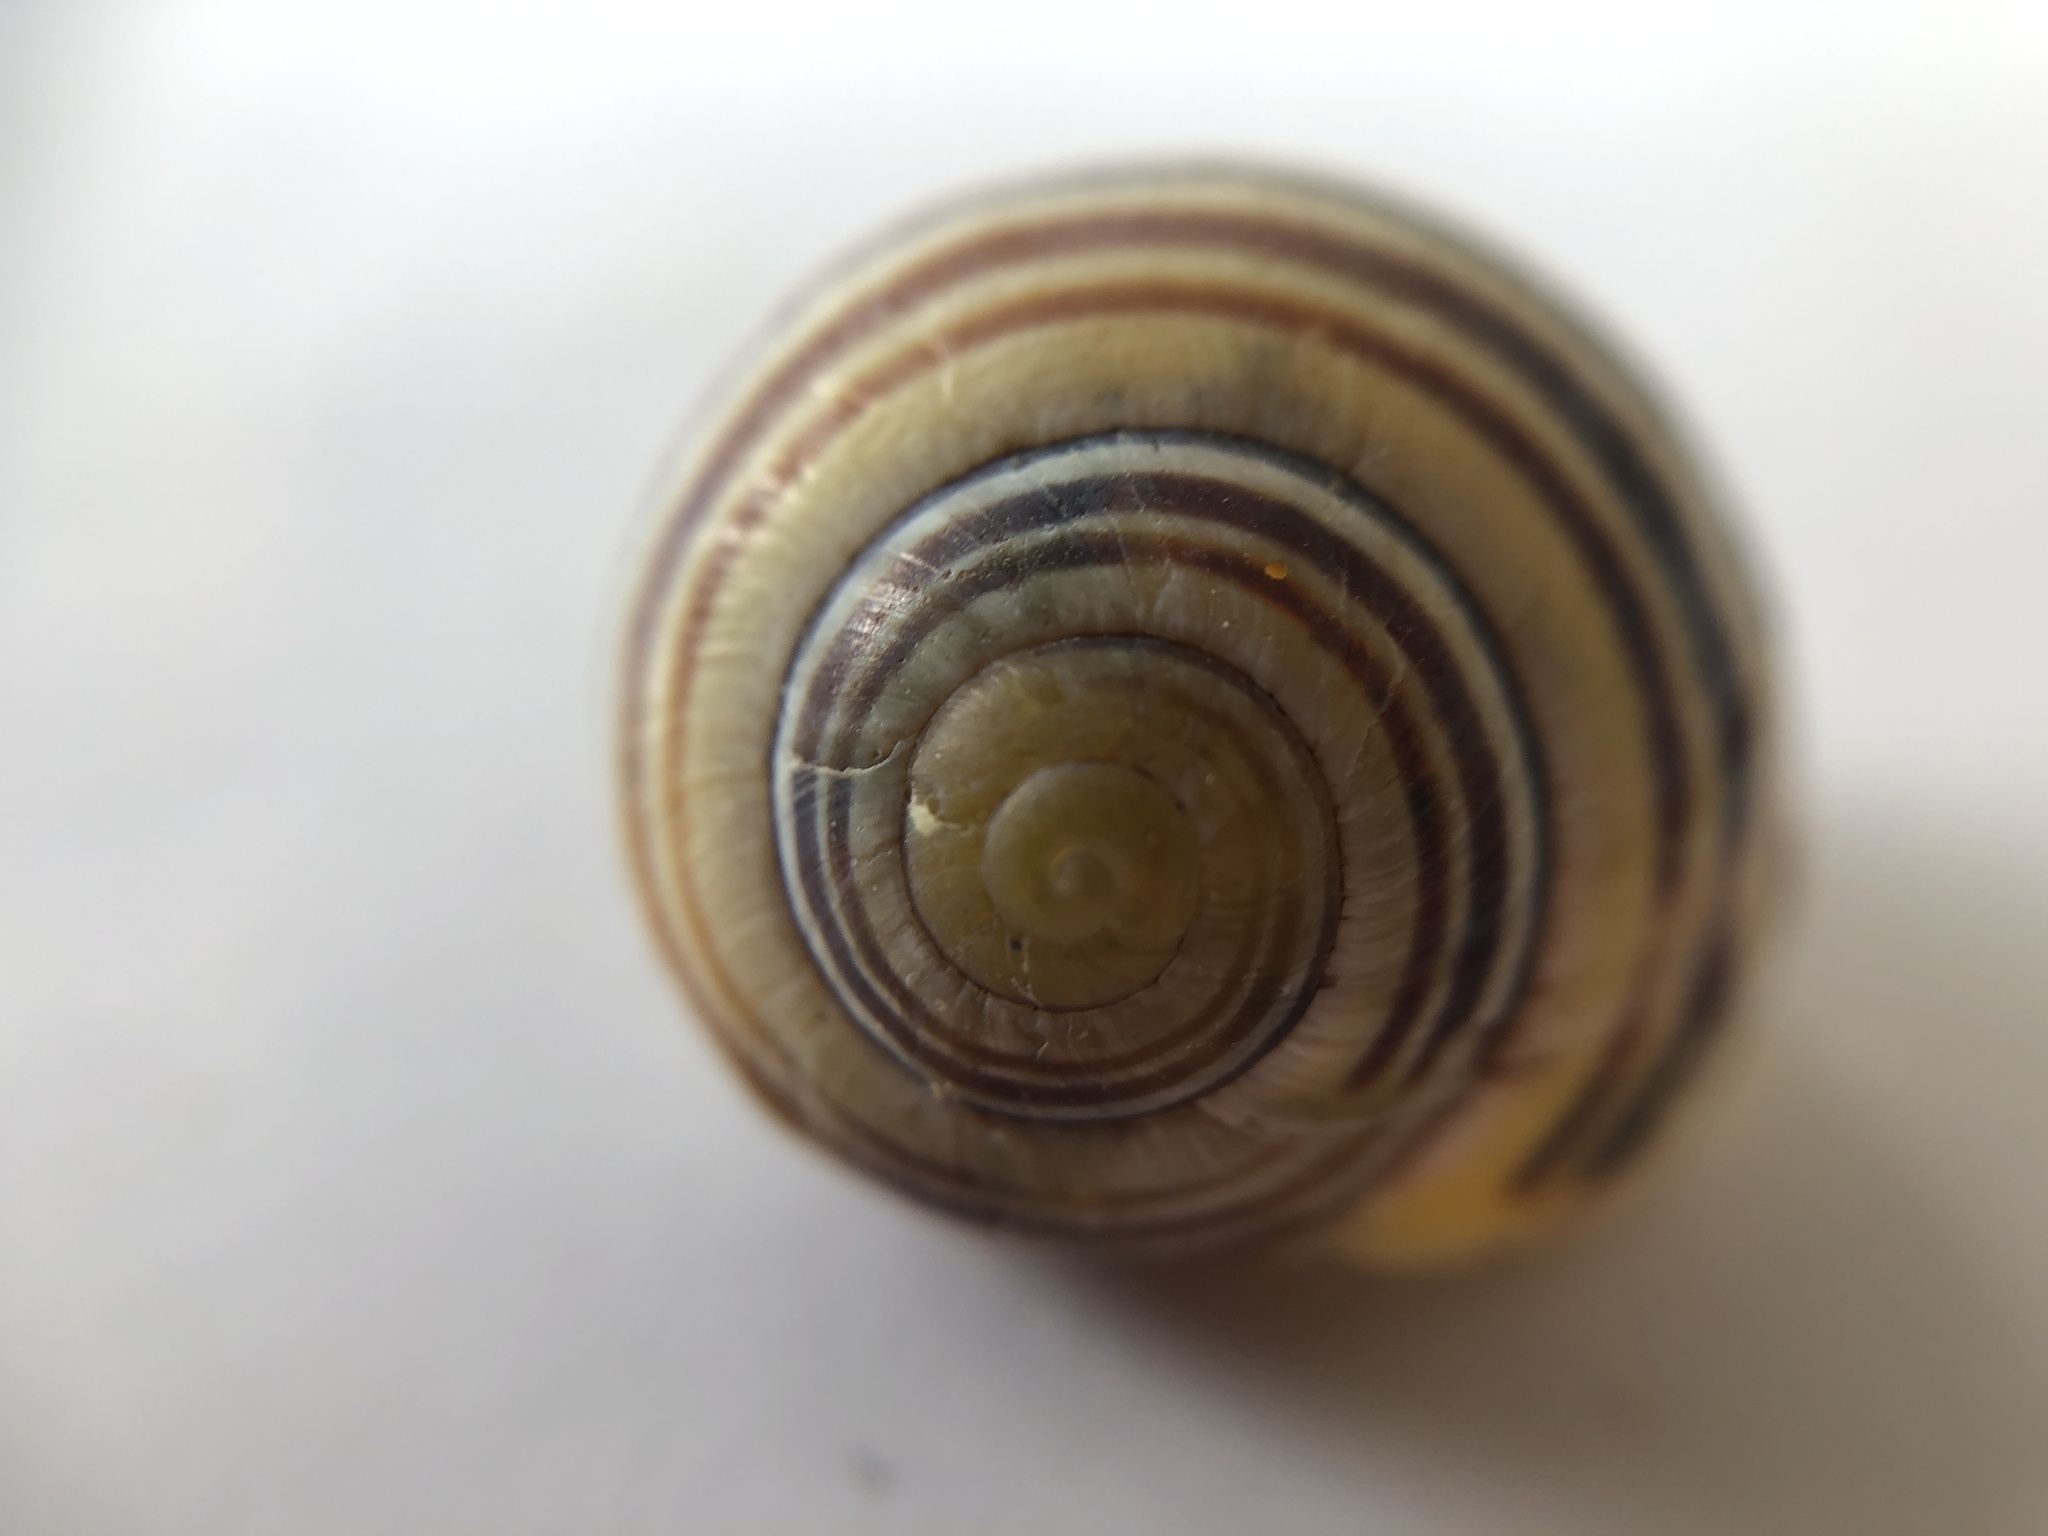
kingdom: Animalia
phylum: Mollusca
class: Gastropoda
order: Stylommatophora
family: Helicidae
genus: Cepaea
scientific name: Cepaea
